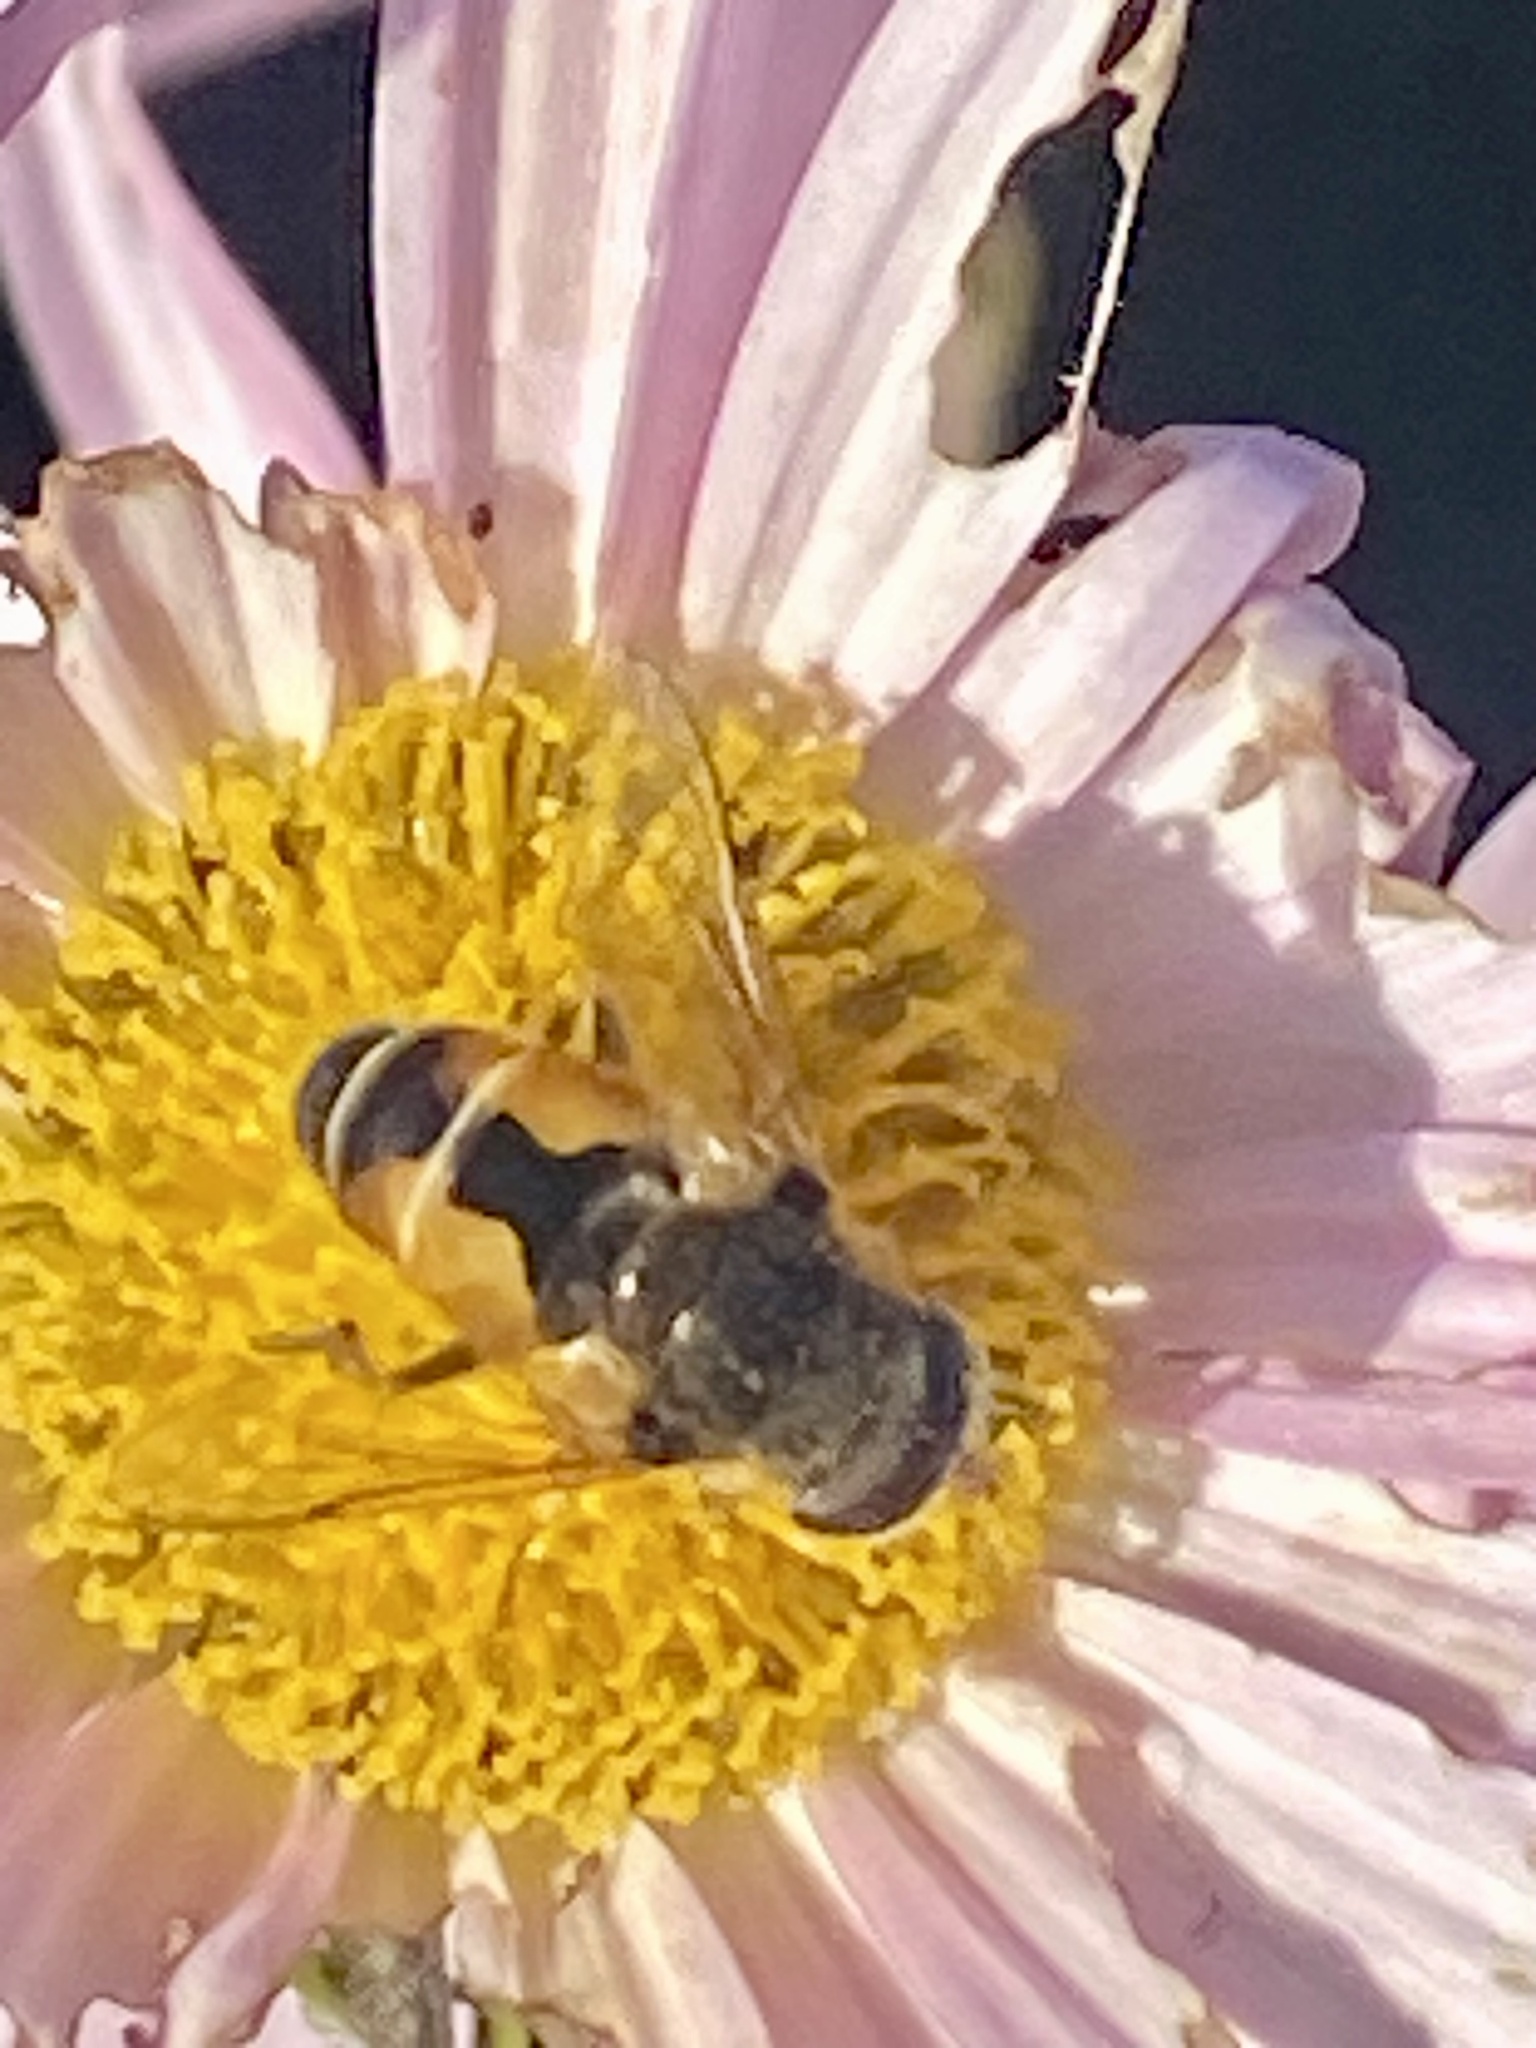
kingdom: Animalia
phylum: Arthropoda
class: Insecta
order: Diptera
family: Syrphidae
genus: Eristalis
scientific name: Eristalis arbustorum
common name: Hover fly
